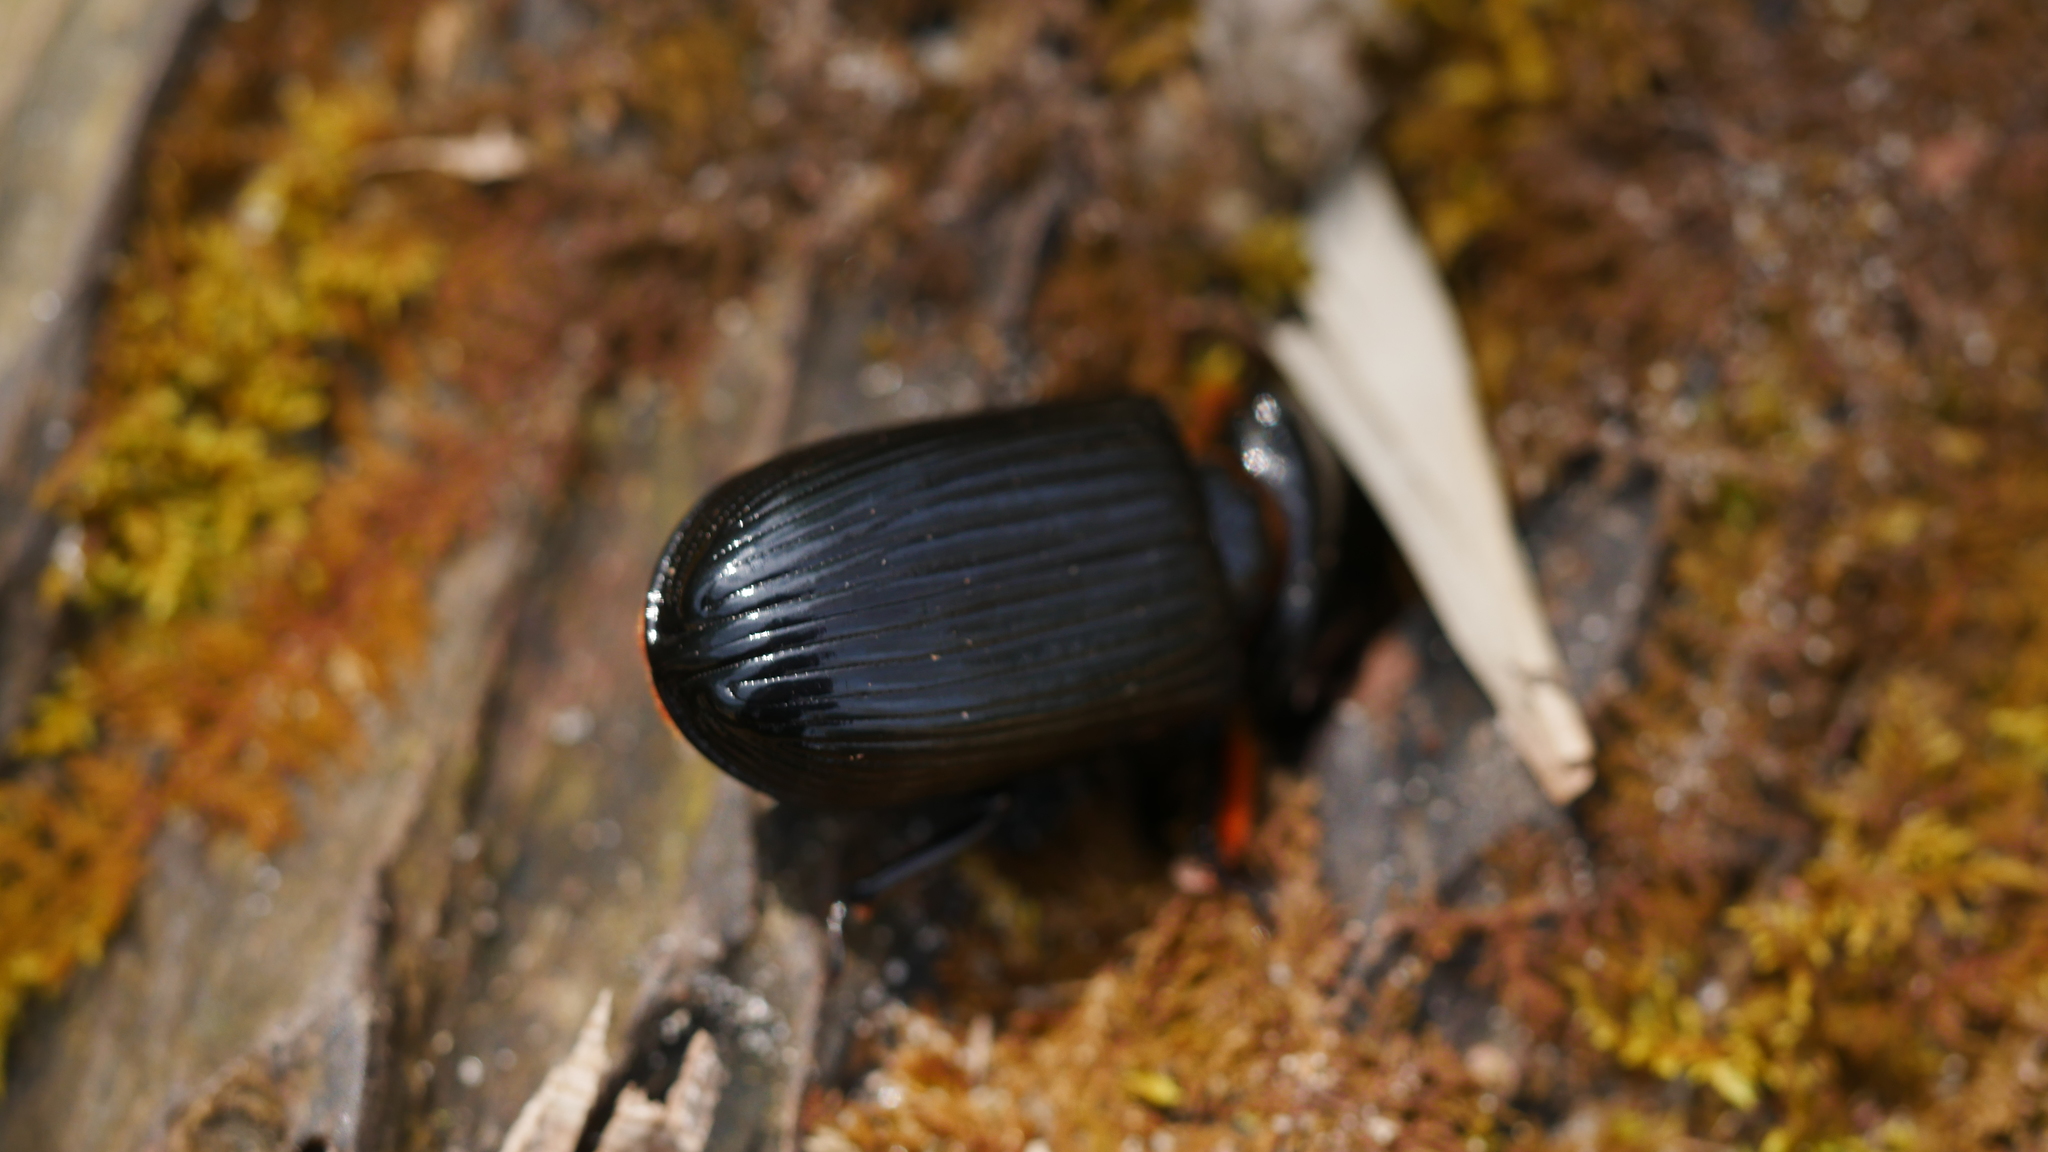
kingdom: Animalia
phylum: Arthropoda
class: Insecta
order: Coleoptera
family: Passalidae
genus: Odontotaenius
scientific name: Odontotaenius disjunctus
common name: Patent leather beetle
